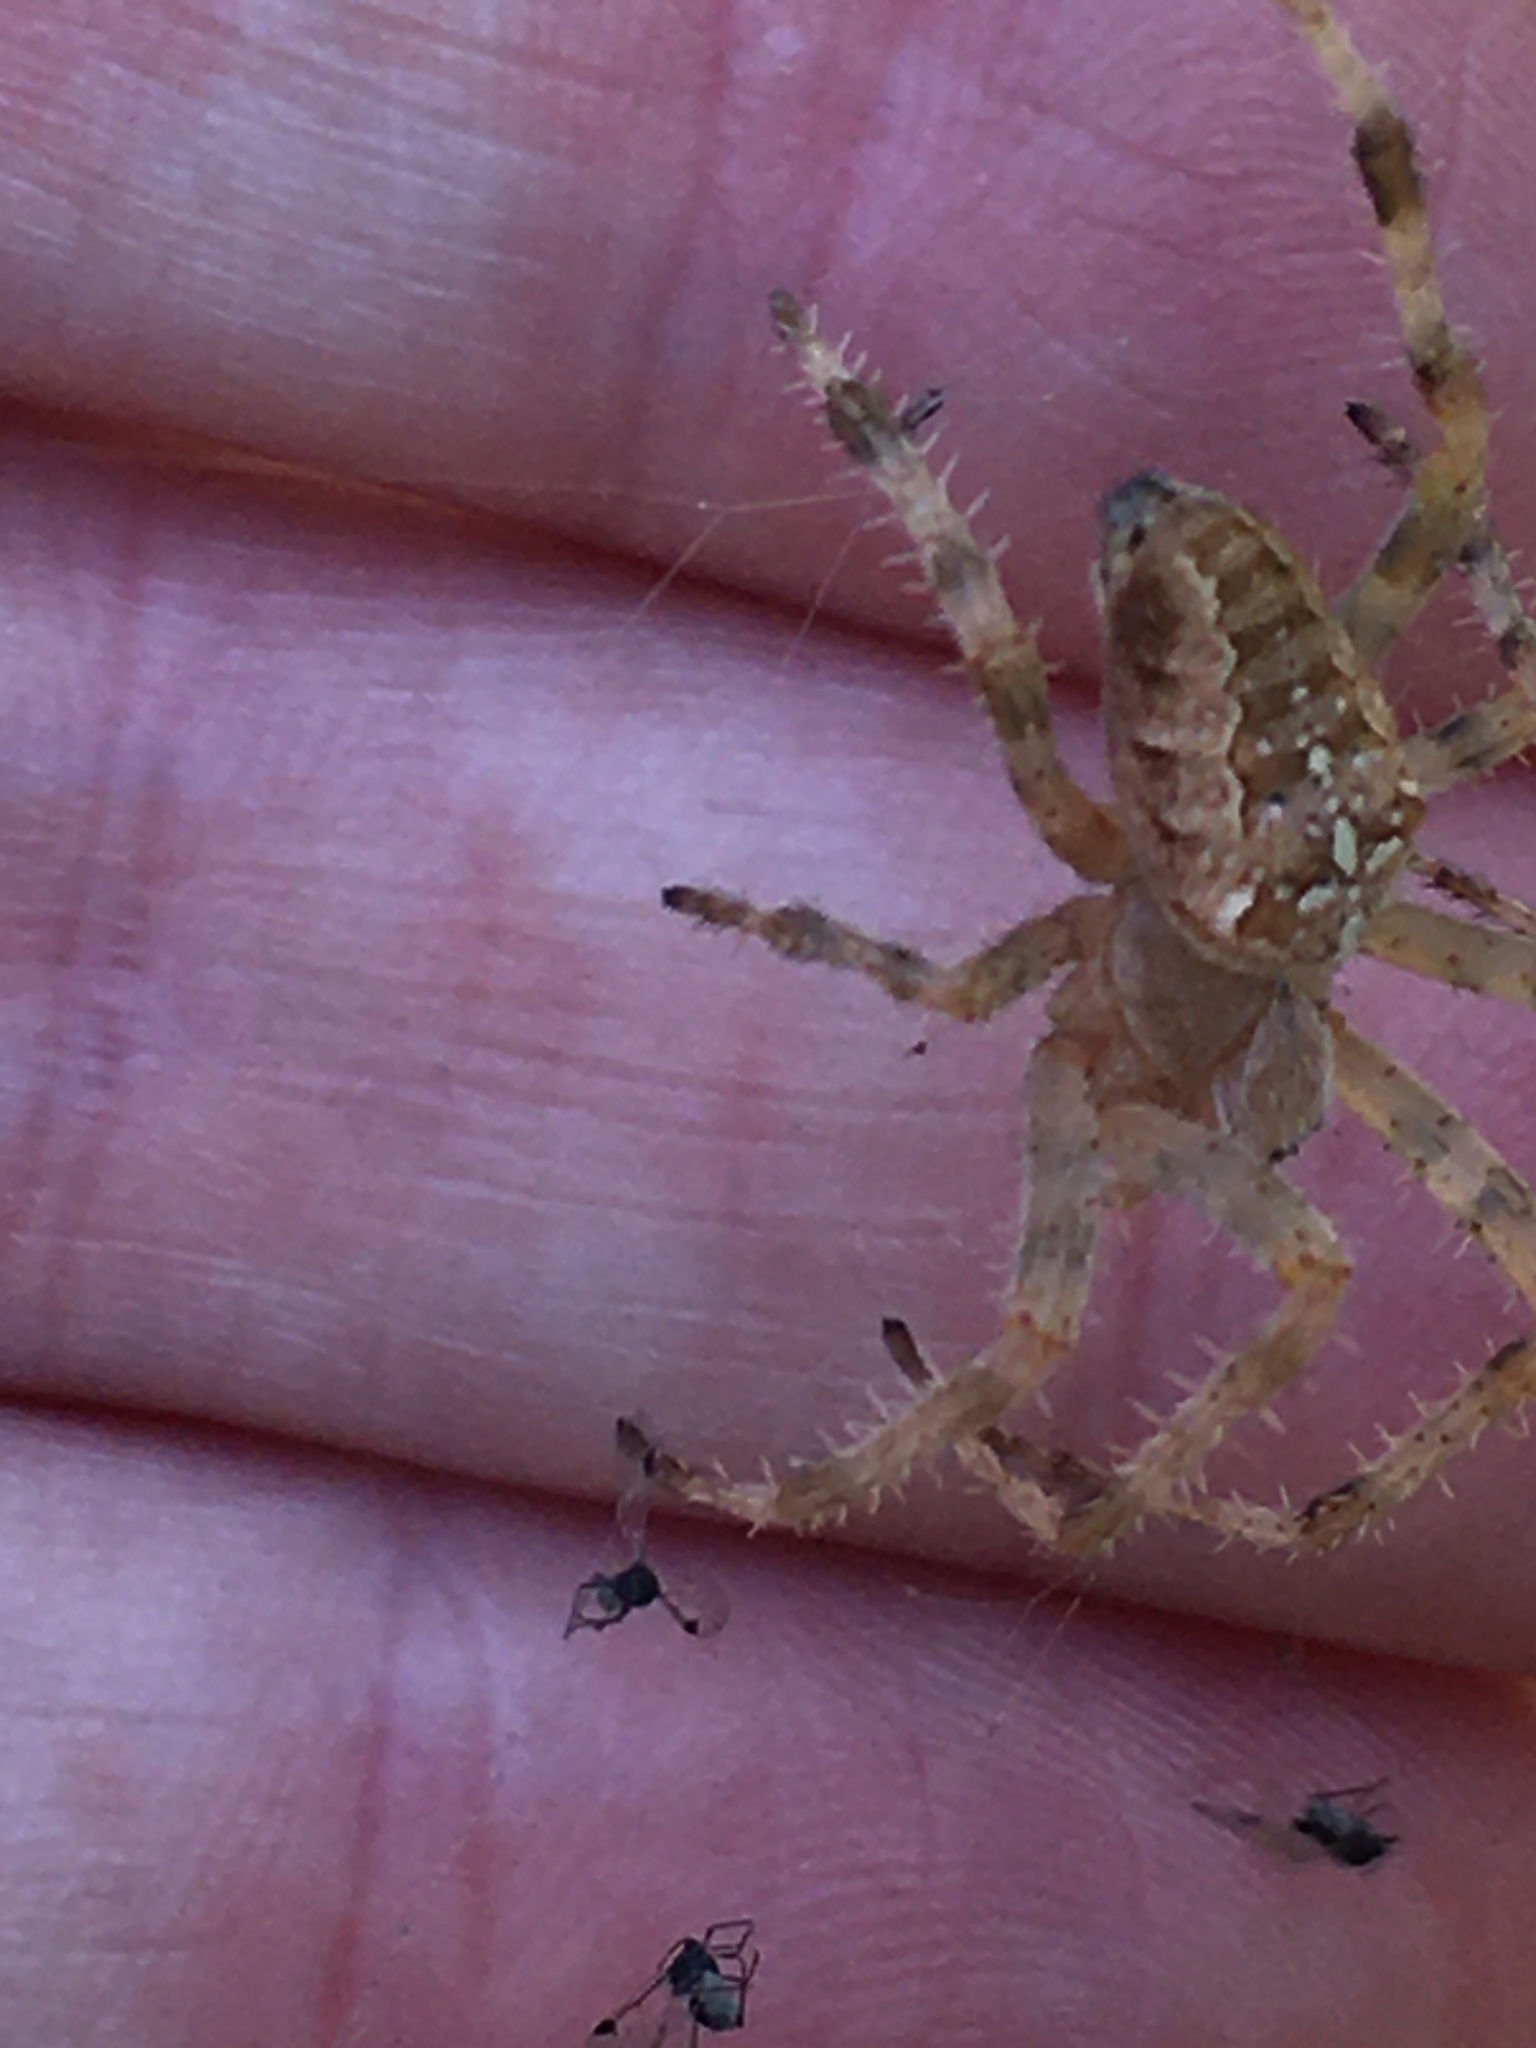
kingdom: Animalia
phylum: Arthropoda
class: Arachnida
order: Araneae
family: Araneidae
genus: Araneus
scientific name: Araneus diadematus
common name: Cross orbweaver
